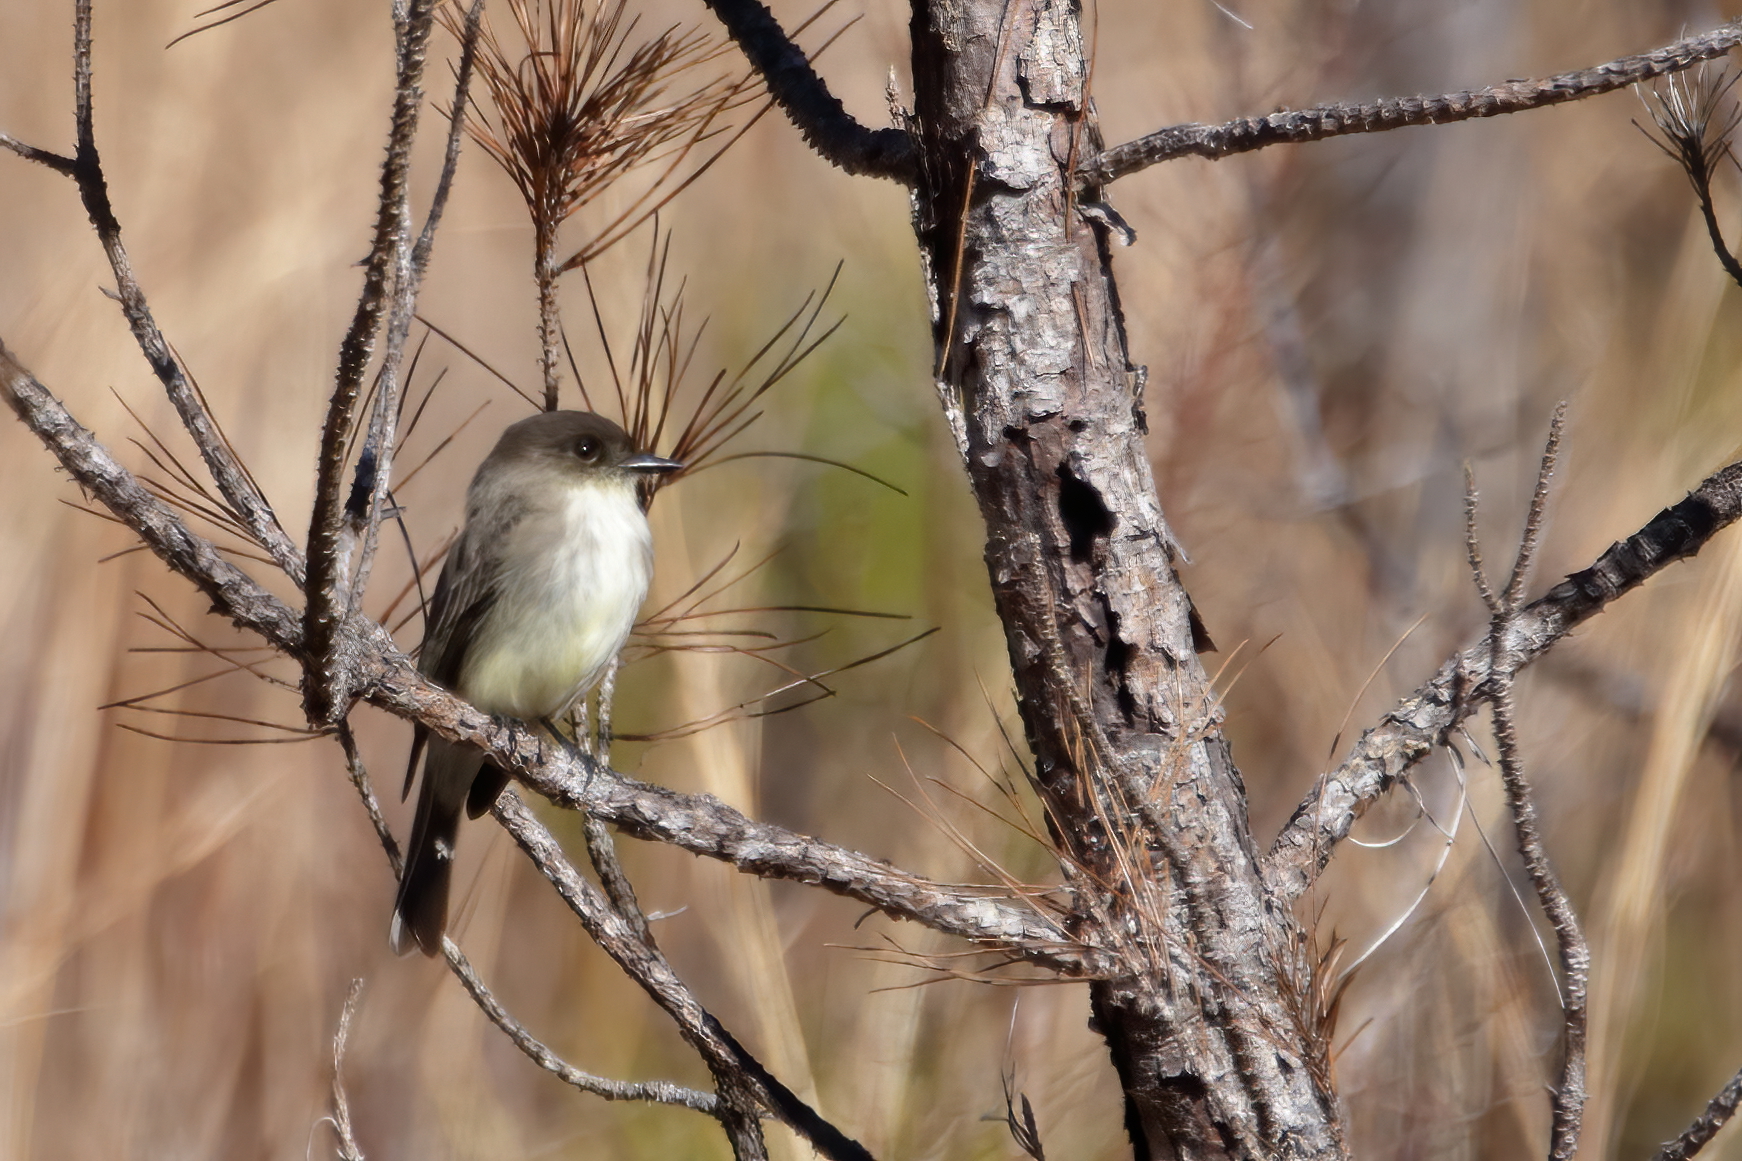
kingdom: Animalia
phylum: Chordata
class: Aves
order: Passeriformes
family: Tyrannidae
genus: Sayornis
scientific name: Sayornis phoebe
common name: Eastern phoebe
